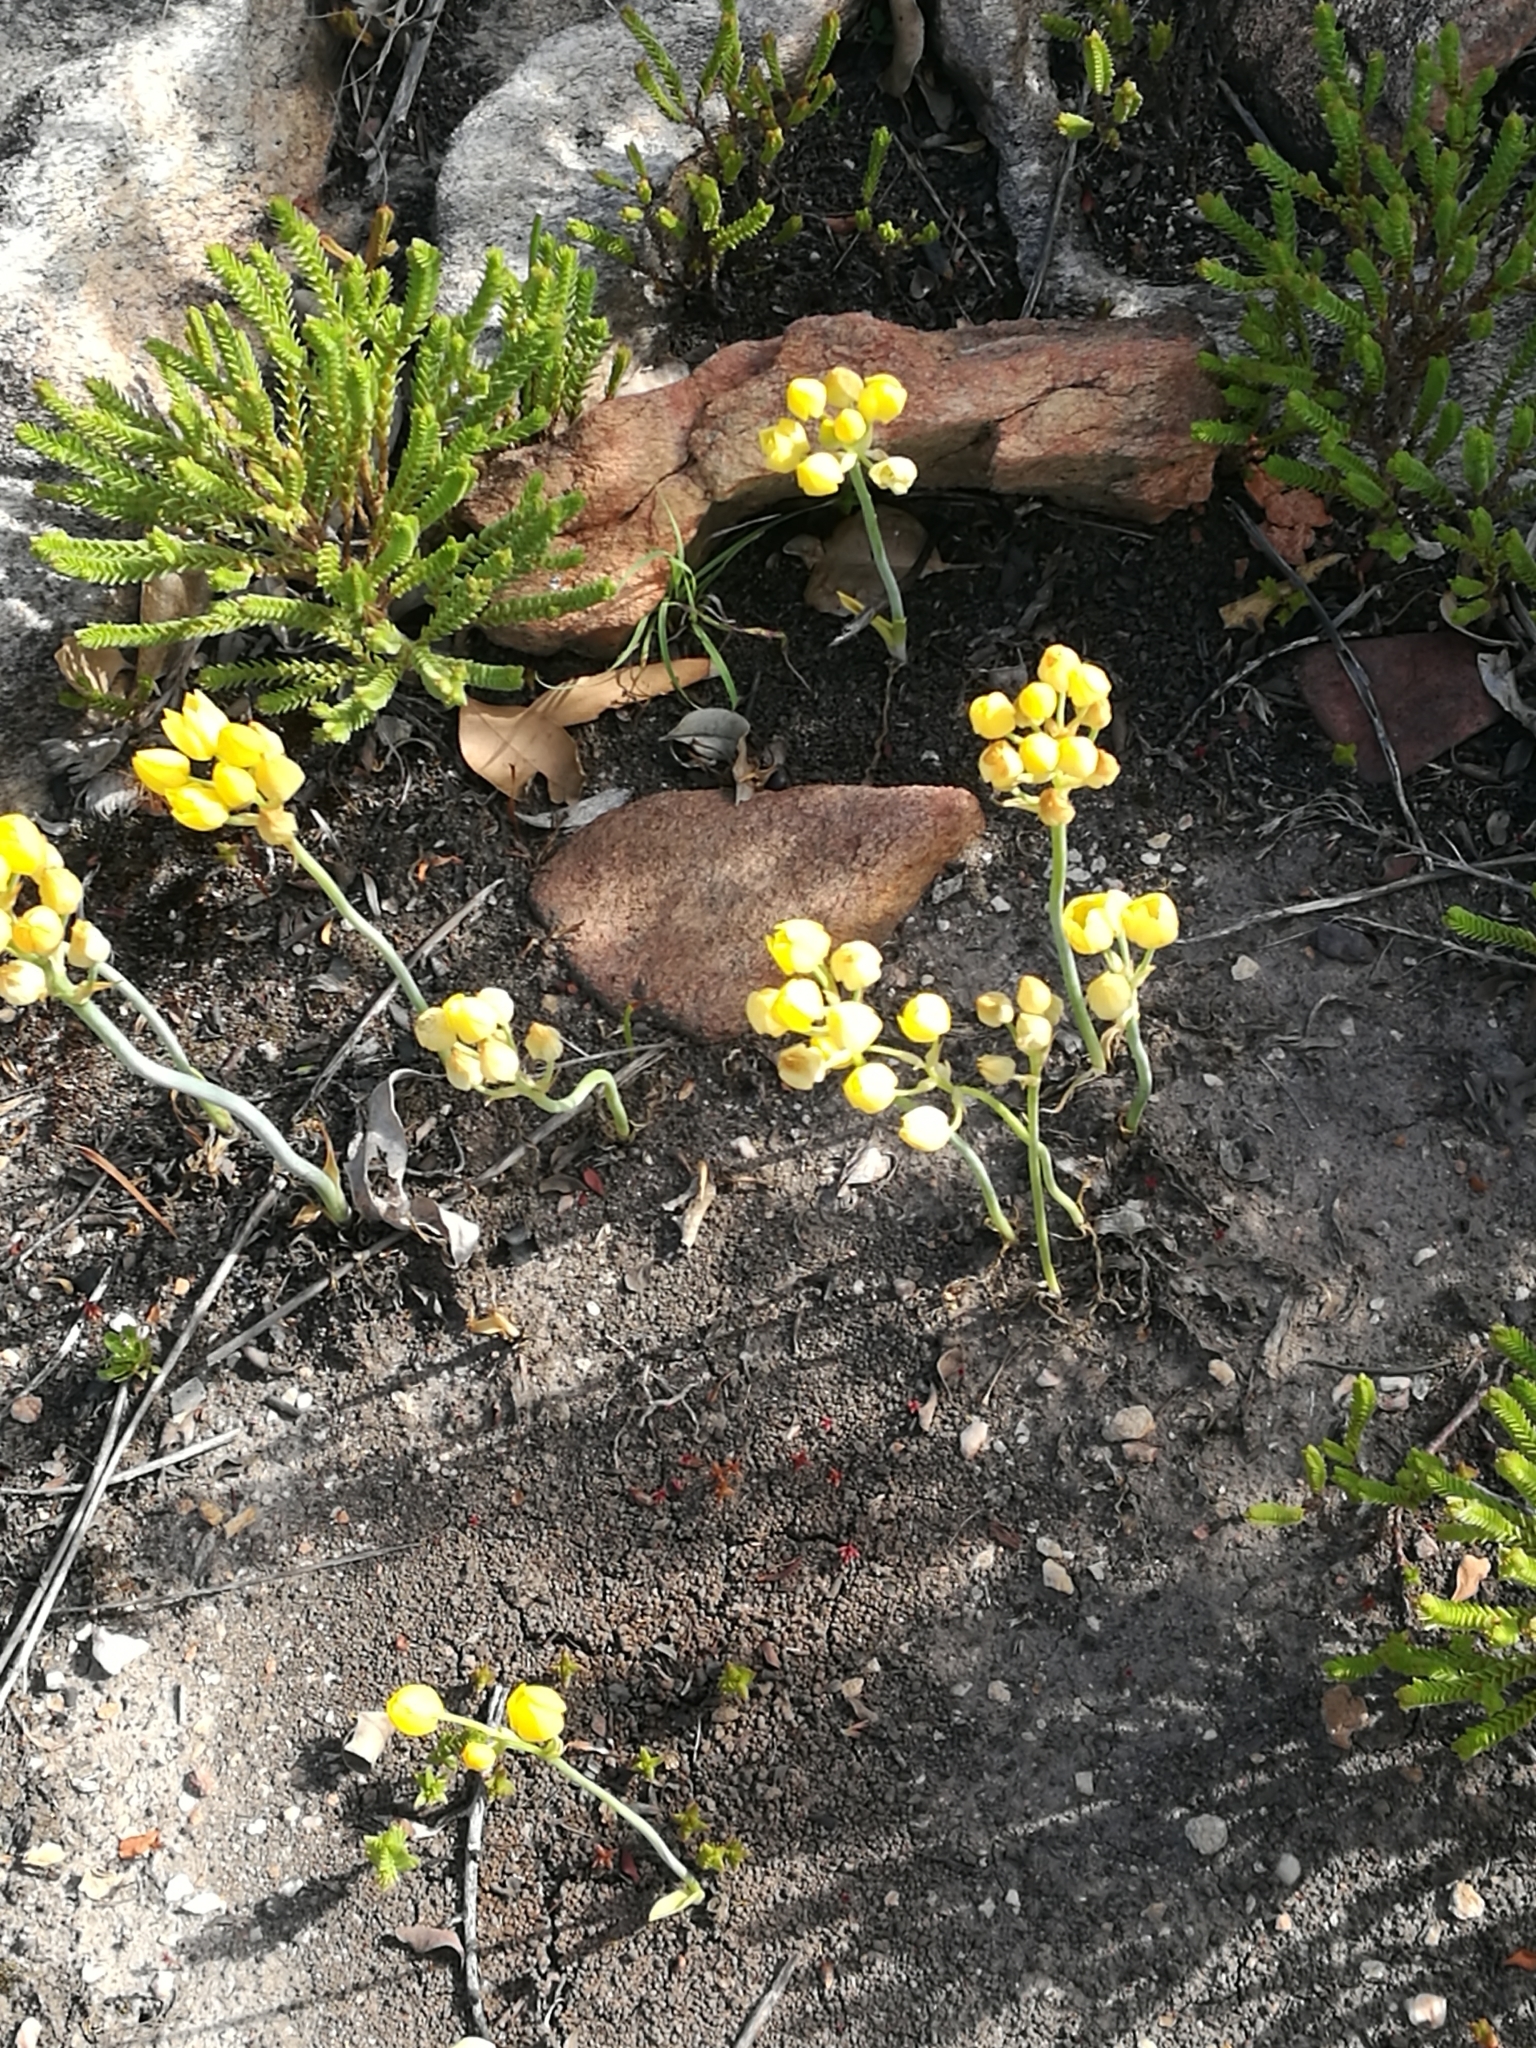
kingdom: Plantae
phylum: Tracheophyta
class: Liliopsida
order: Asparagales
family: Asparagaceae
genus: Ornithogalum
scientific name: Ornithogalum dubium
